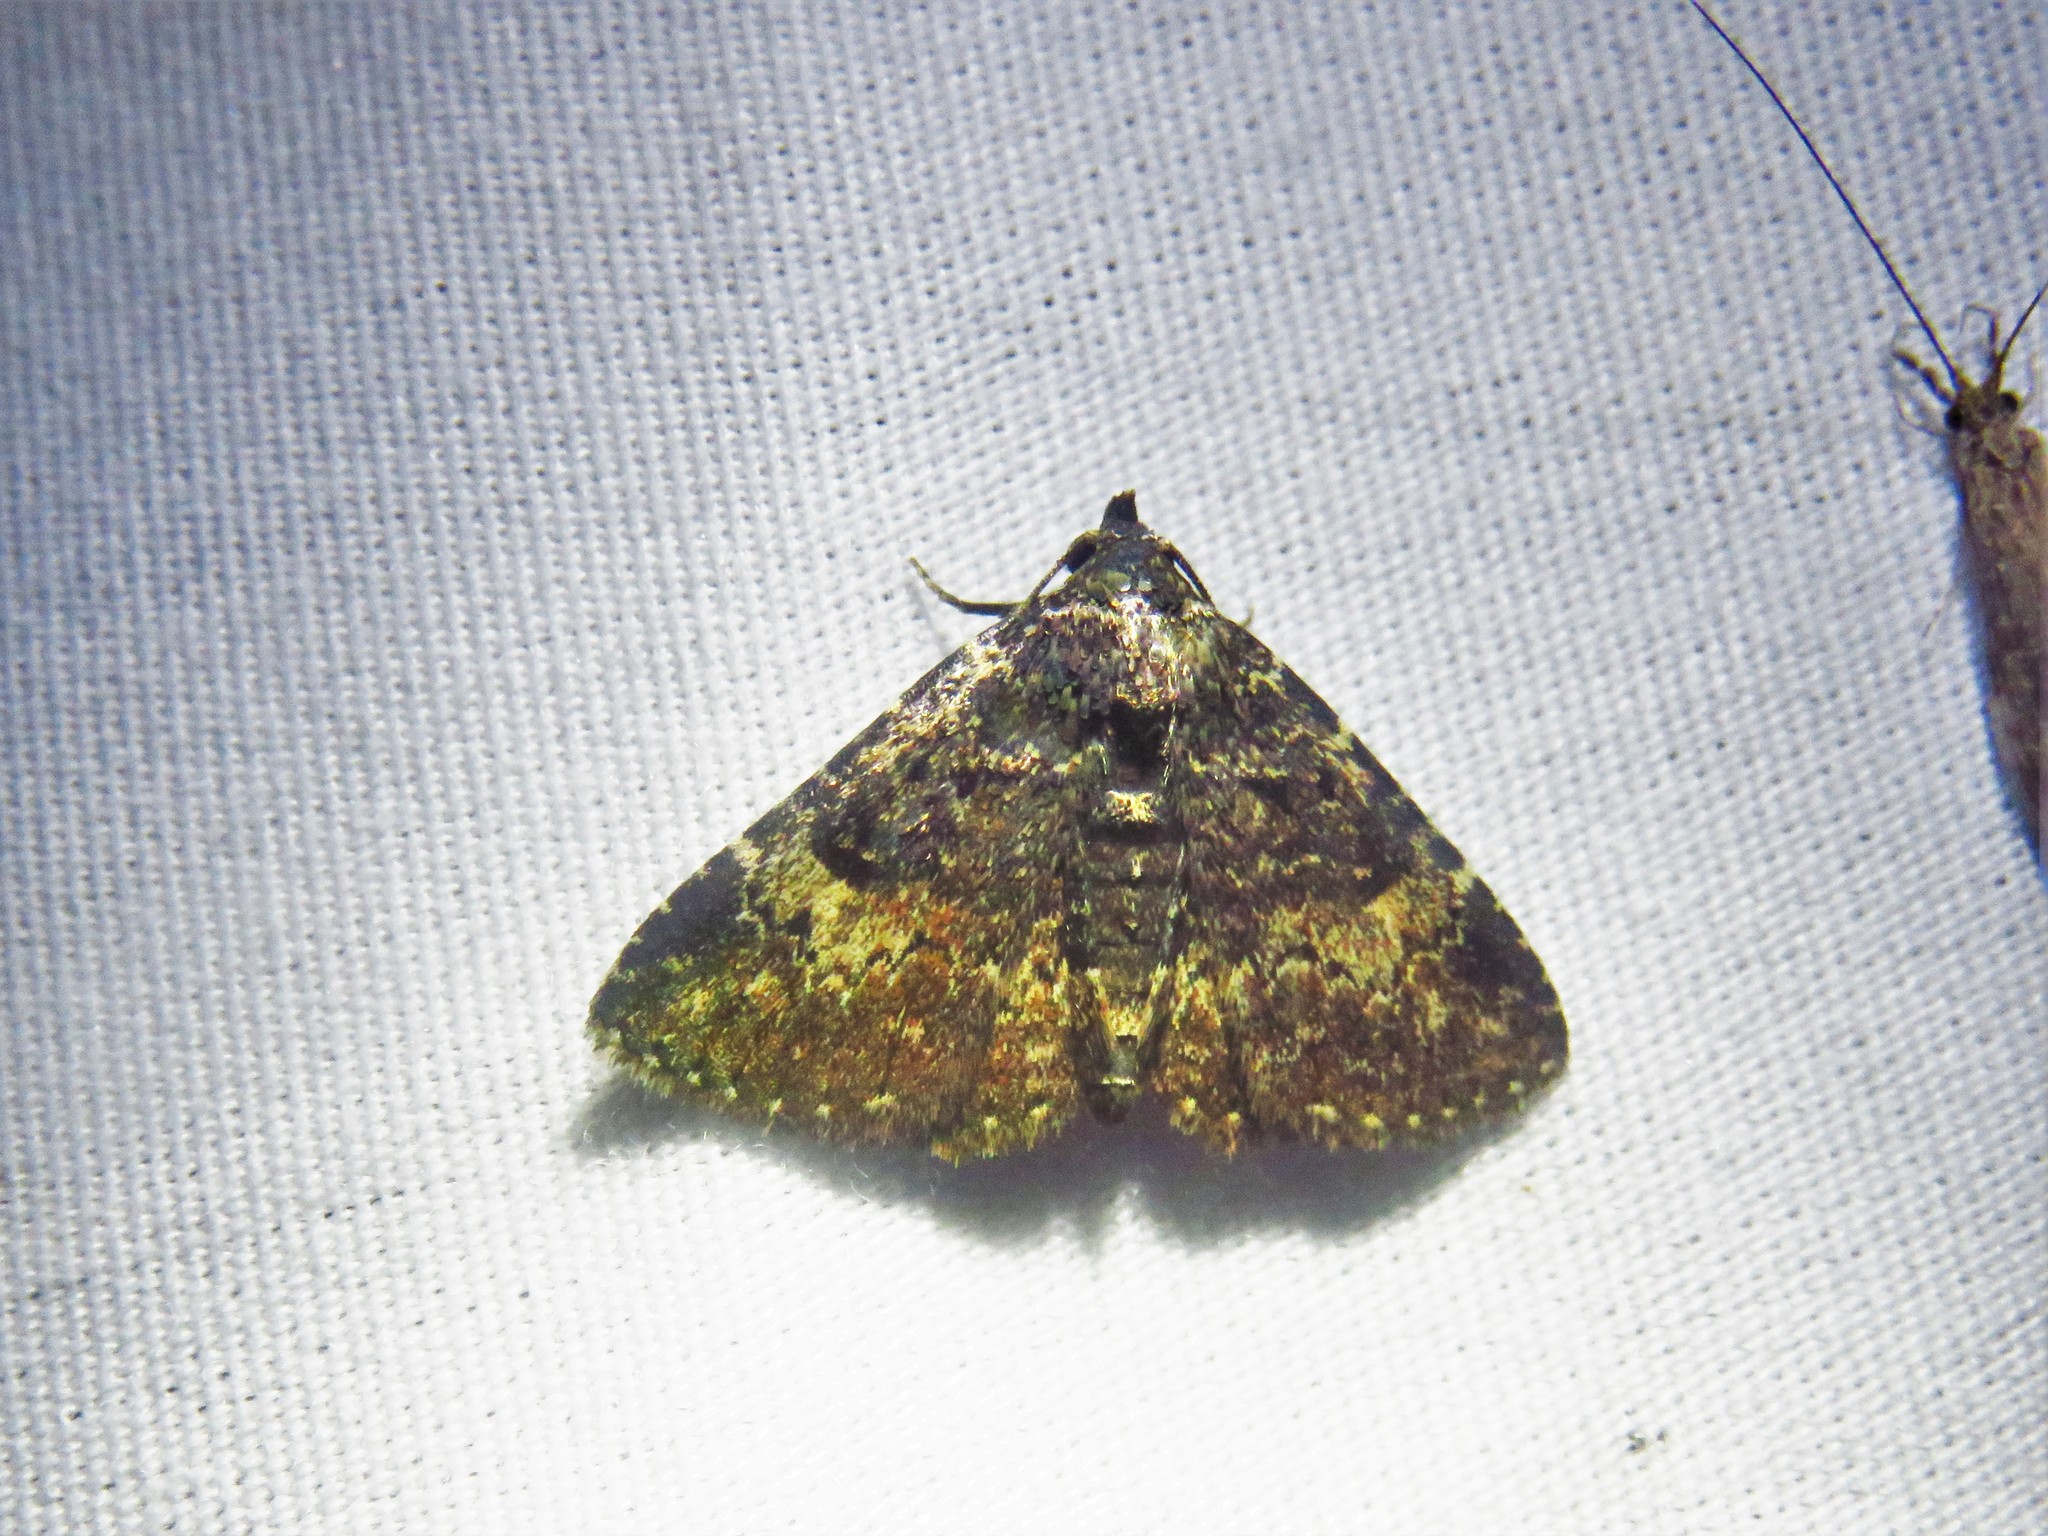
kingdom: Animalia
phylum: Arthropoda
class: Insecta
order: Lepidoptera
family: Erebidae
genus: Metalectra
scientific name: Metalectra diabolica
